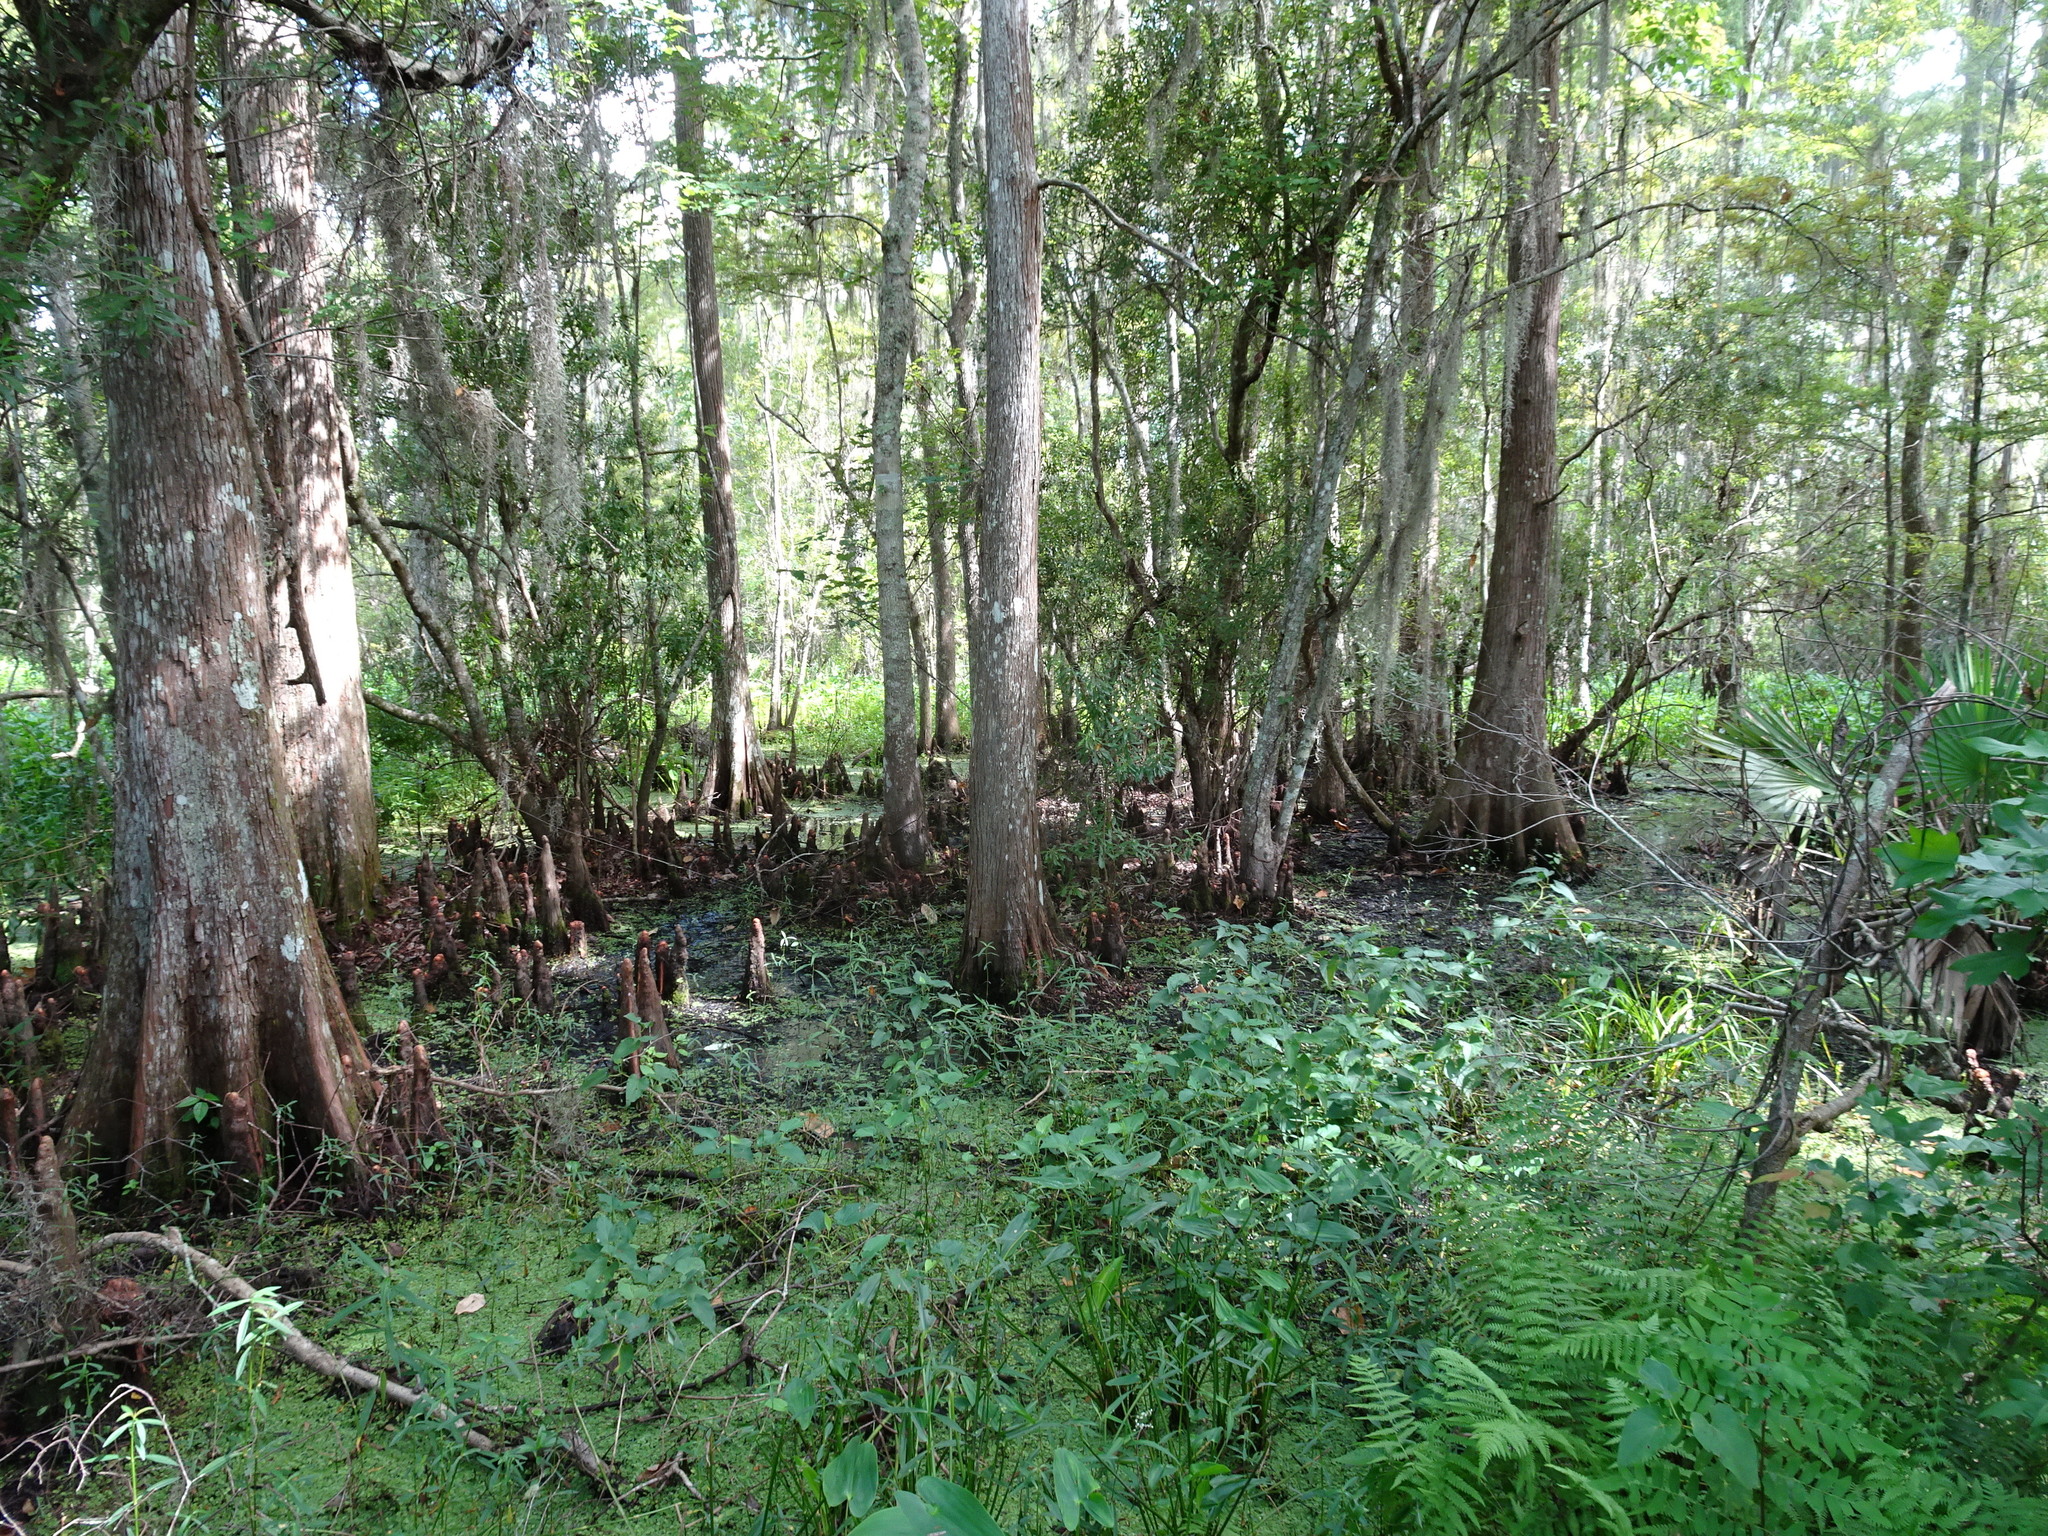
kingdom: Plantae
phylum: Tracheophyta
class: Pinopsida
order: Pinales
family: Cupressaceae
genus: Taxodium
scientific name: Taxodium distichum
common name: Bald cypress
